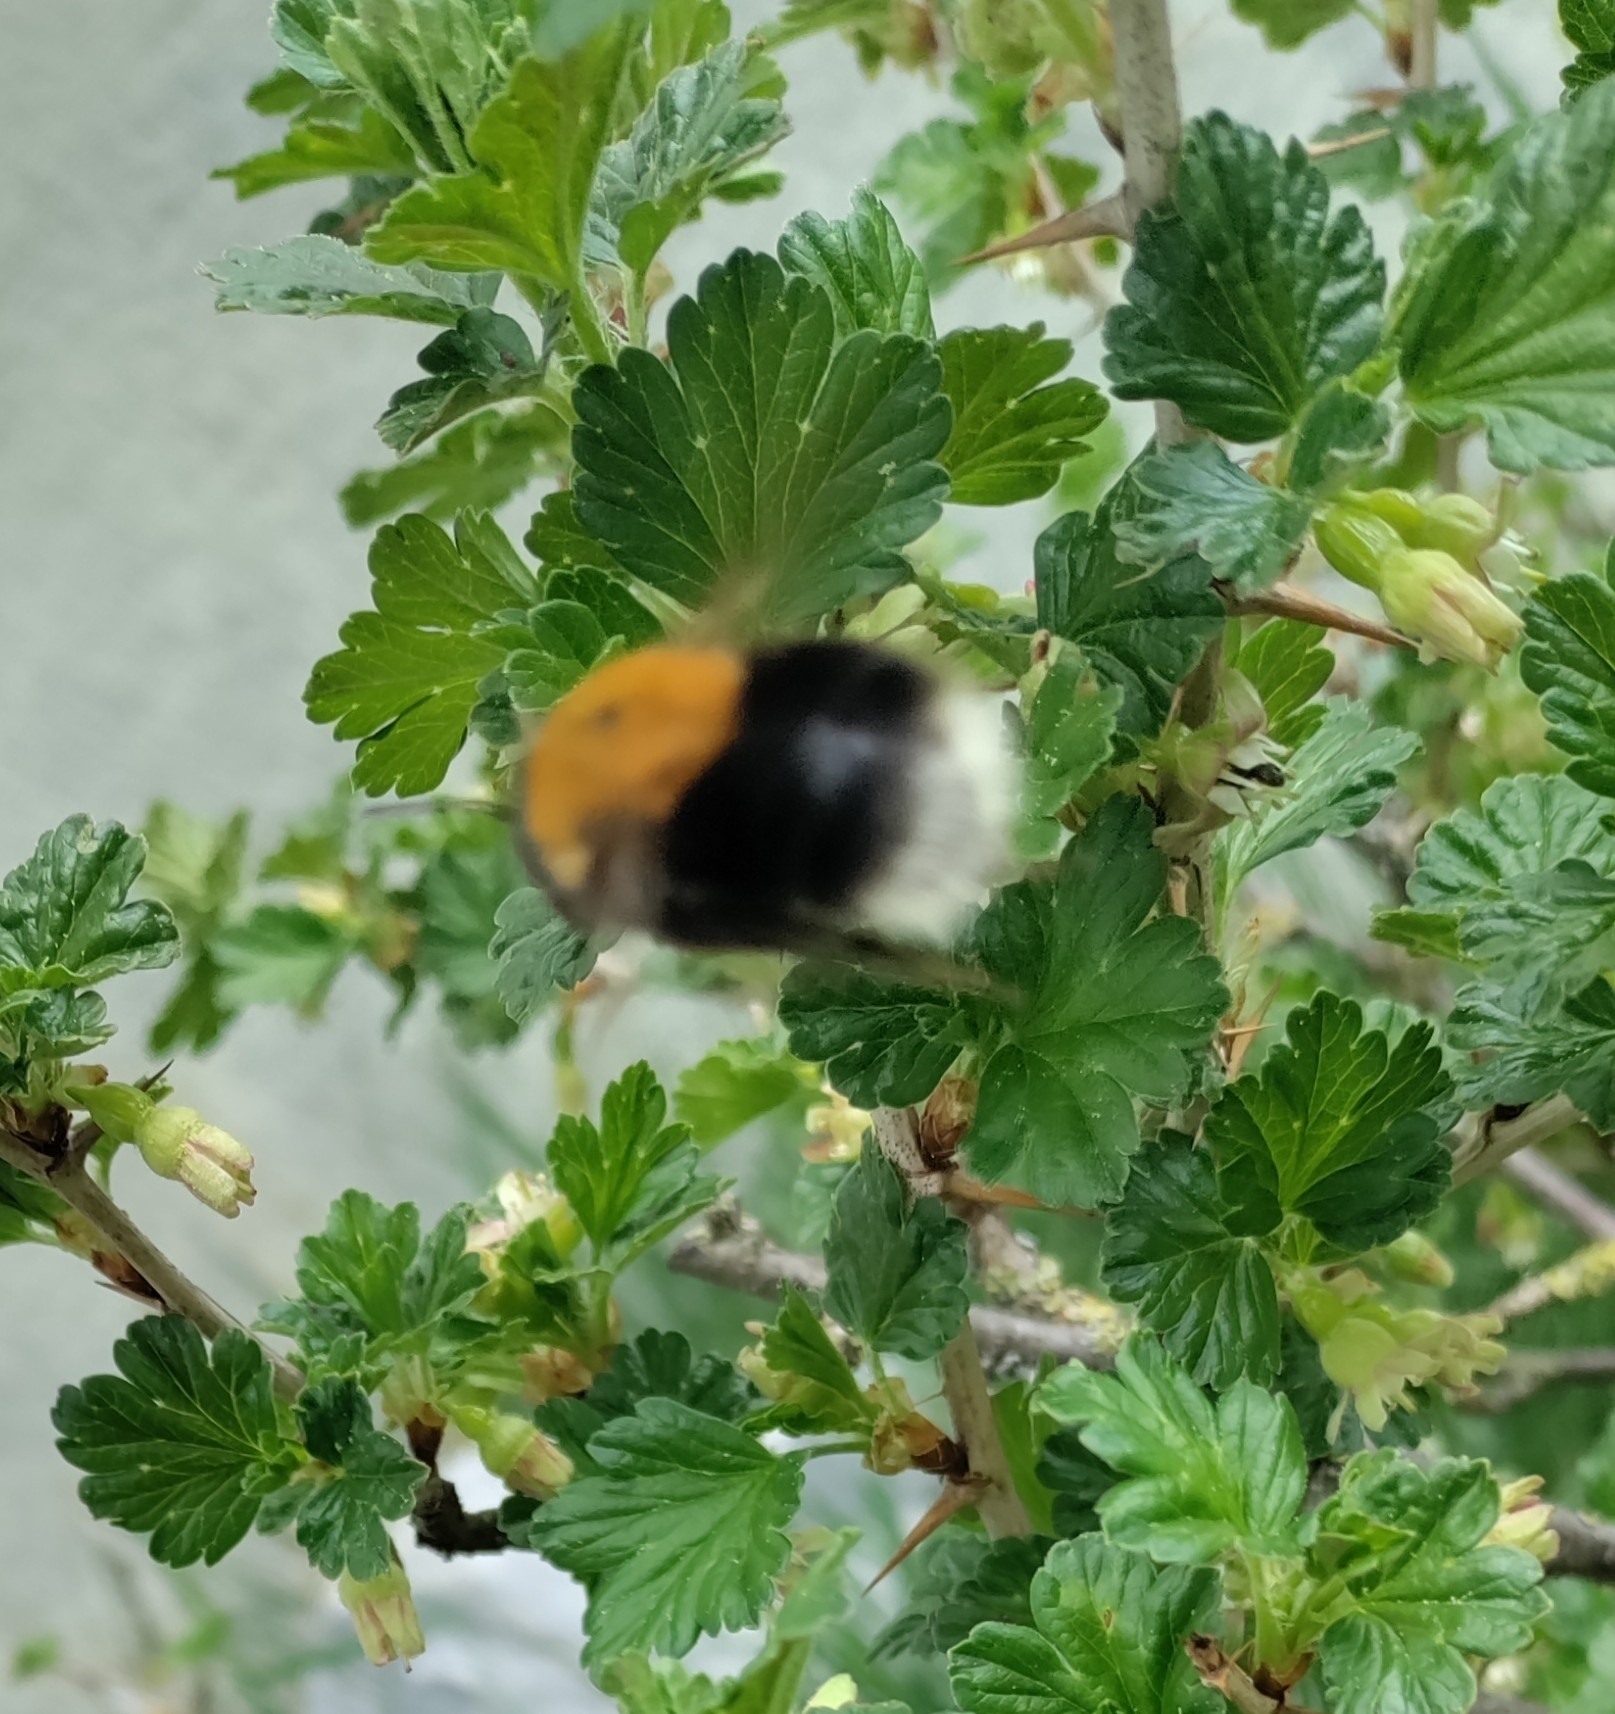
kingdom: Animalia
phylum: Arthropoda
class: Insecta
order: Hymenoptera
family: Apidae
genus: Bombus
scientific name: Bombus hypnorum
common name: New garden bumblebee
